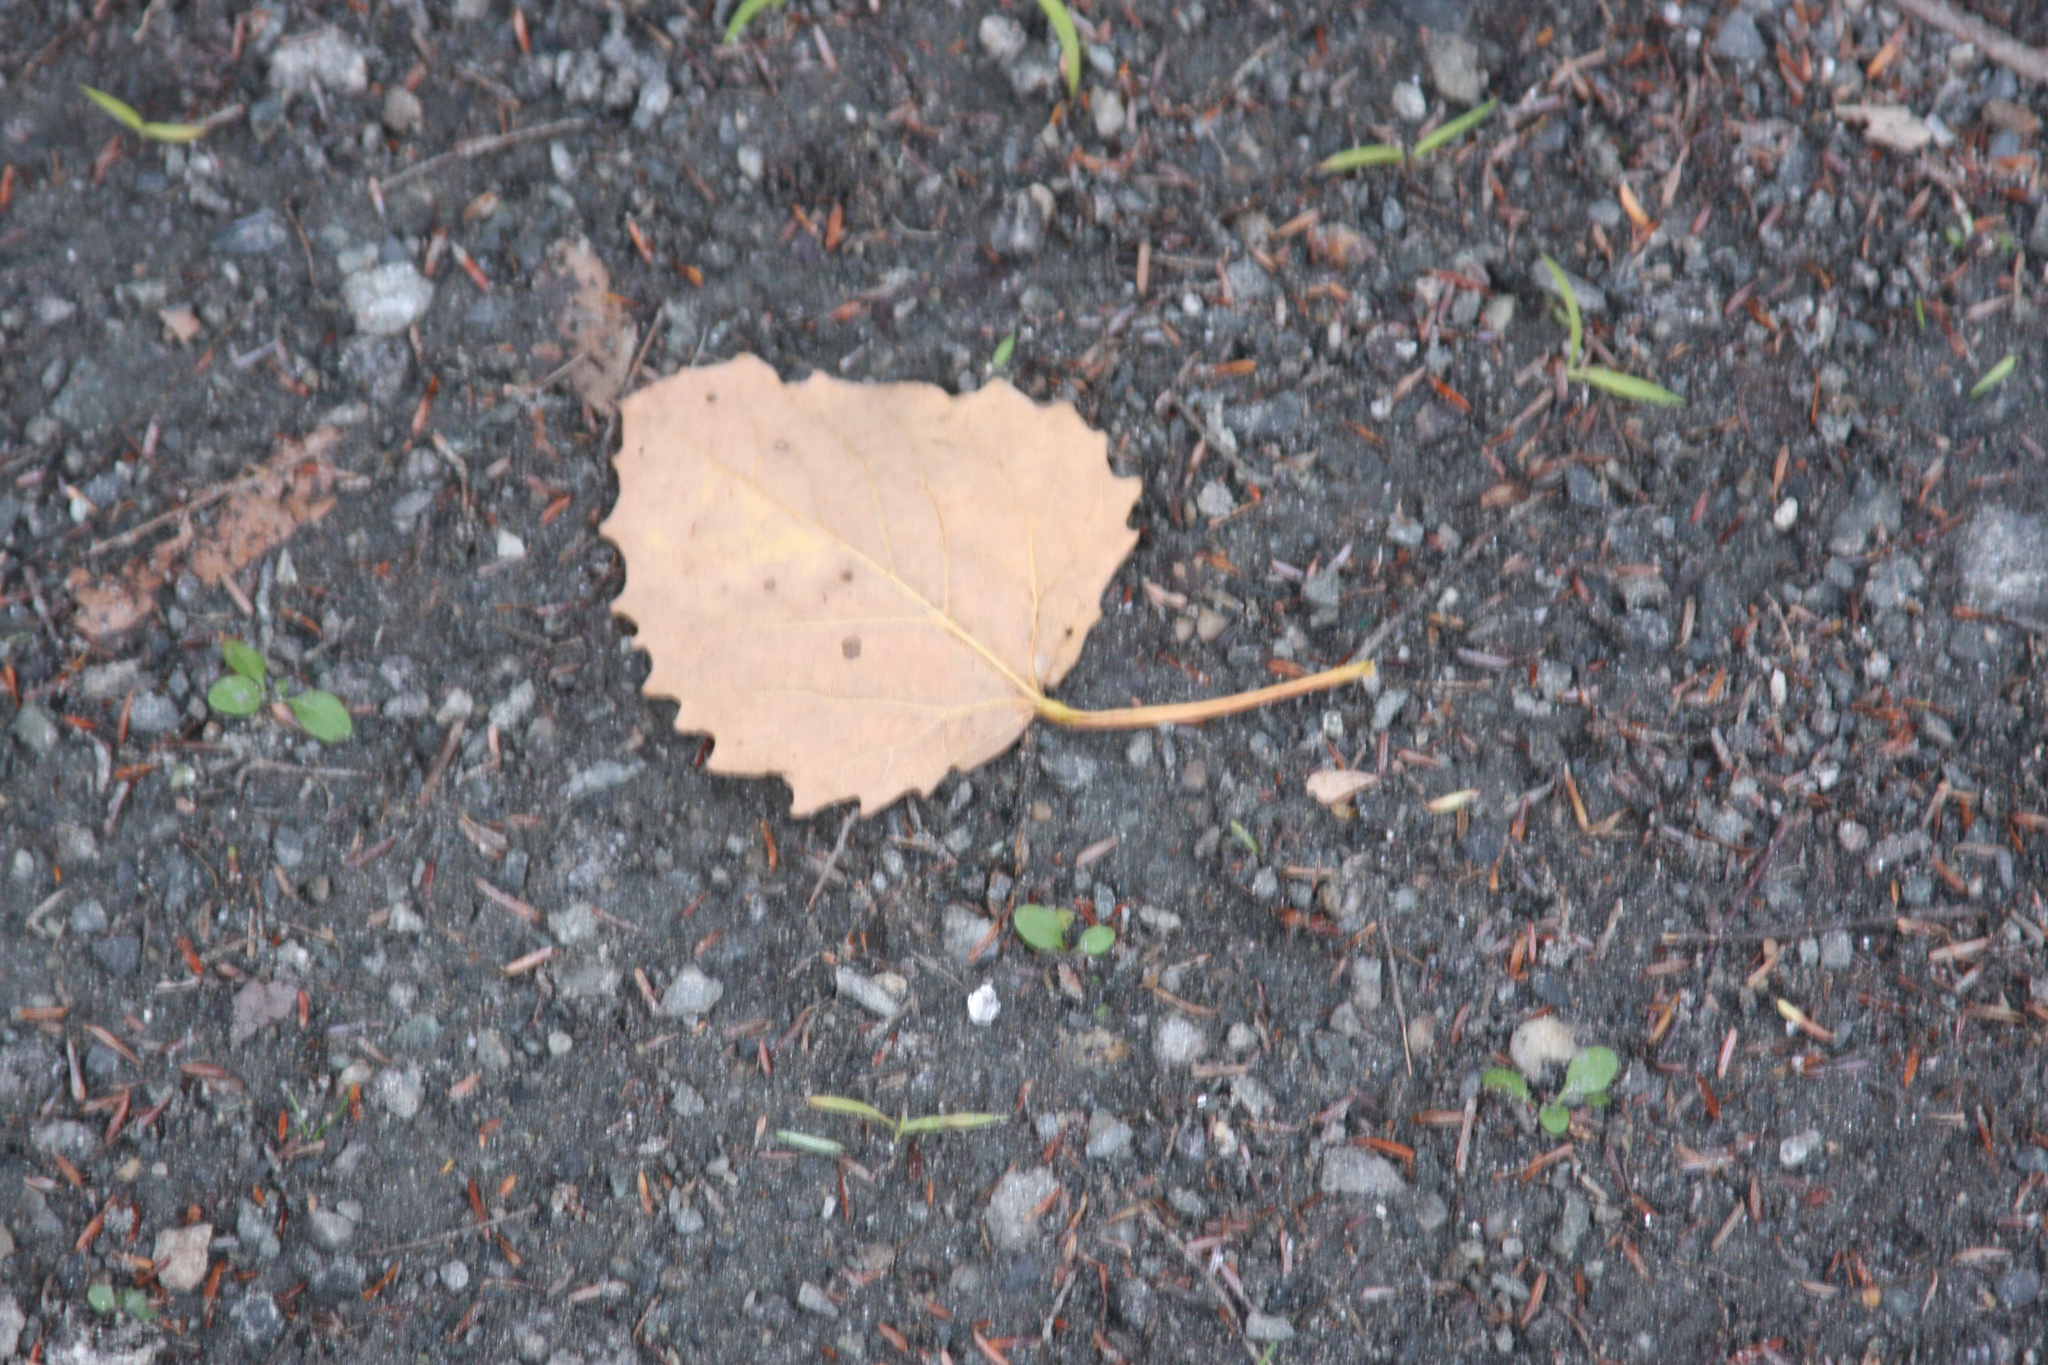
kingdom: Plantae
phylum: Tracheophyta
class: Magnoliopsida
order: Malpighiales
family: Salicaceae
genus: Populus
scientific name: Populus grandidentata
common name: Bigtooth aspen
